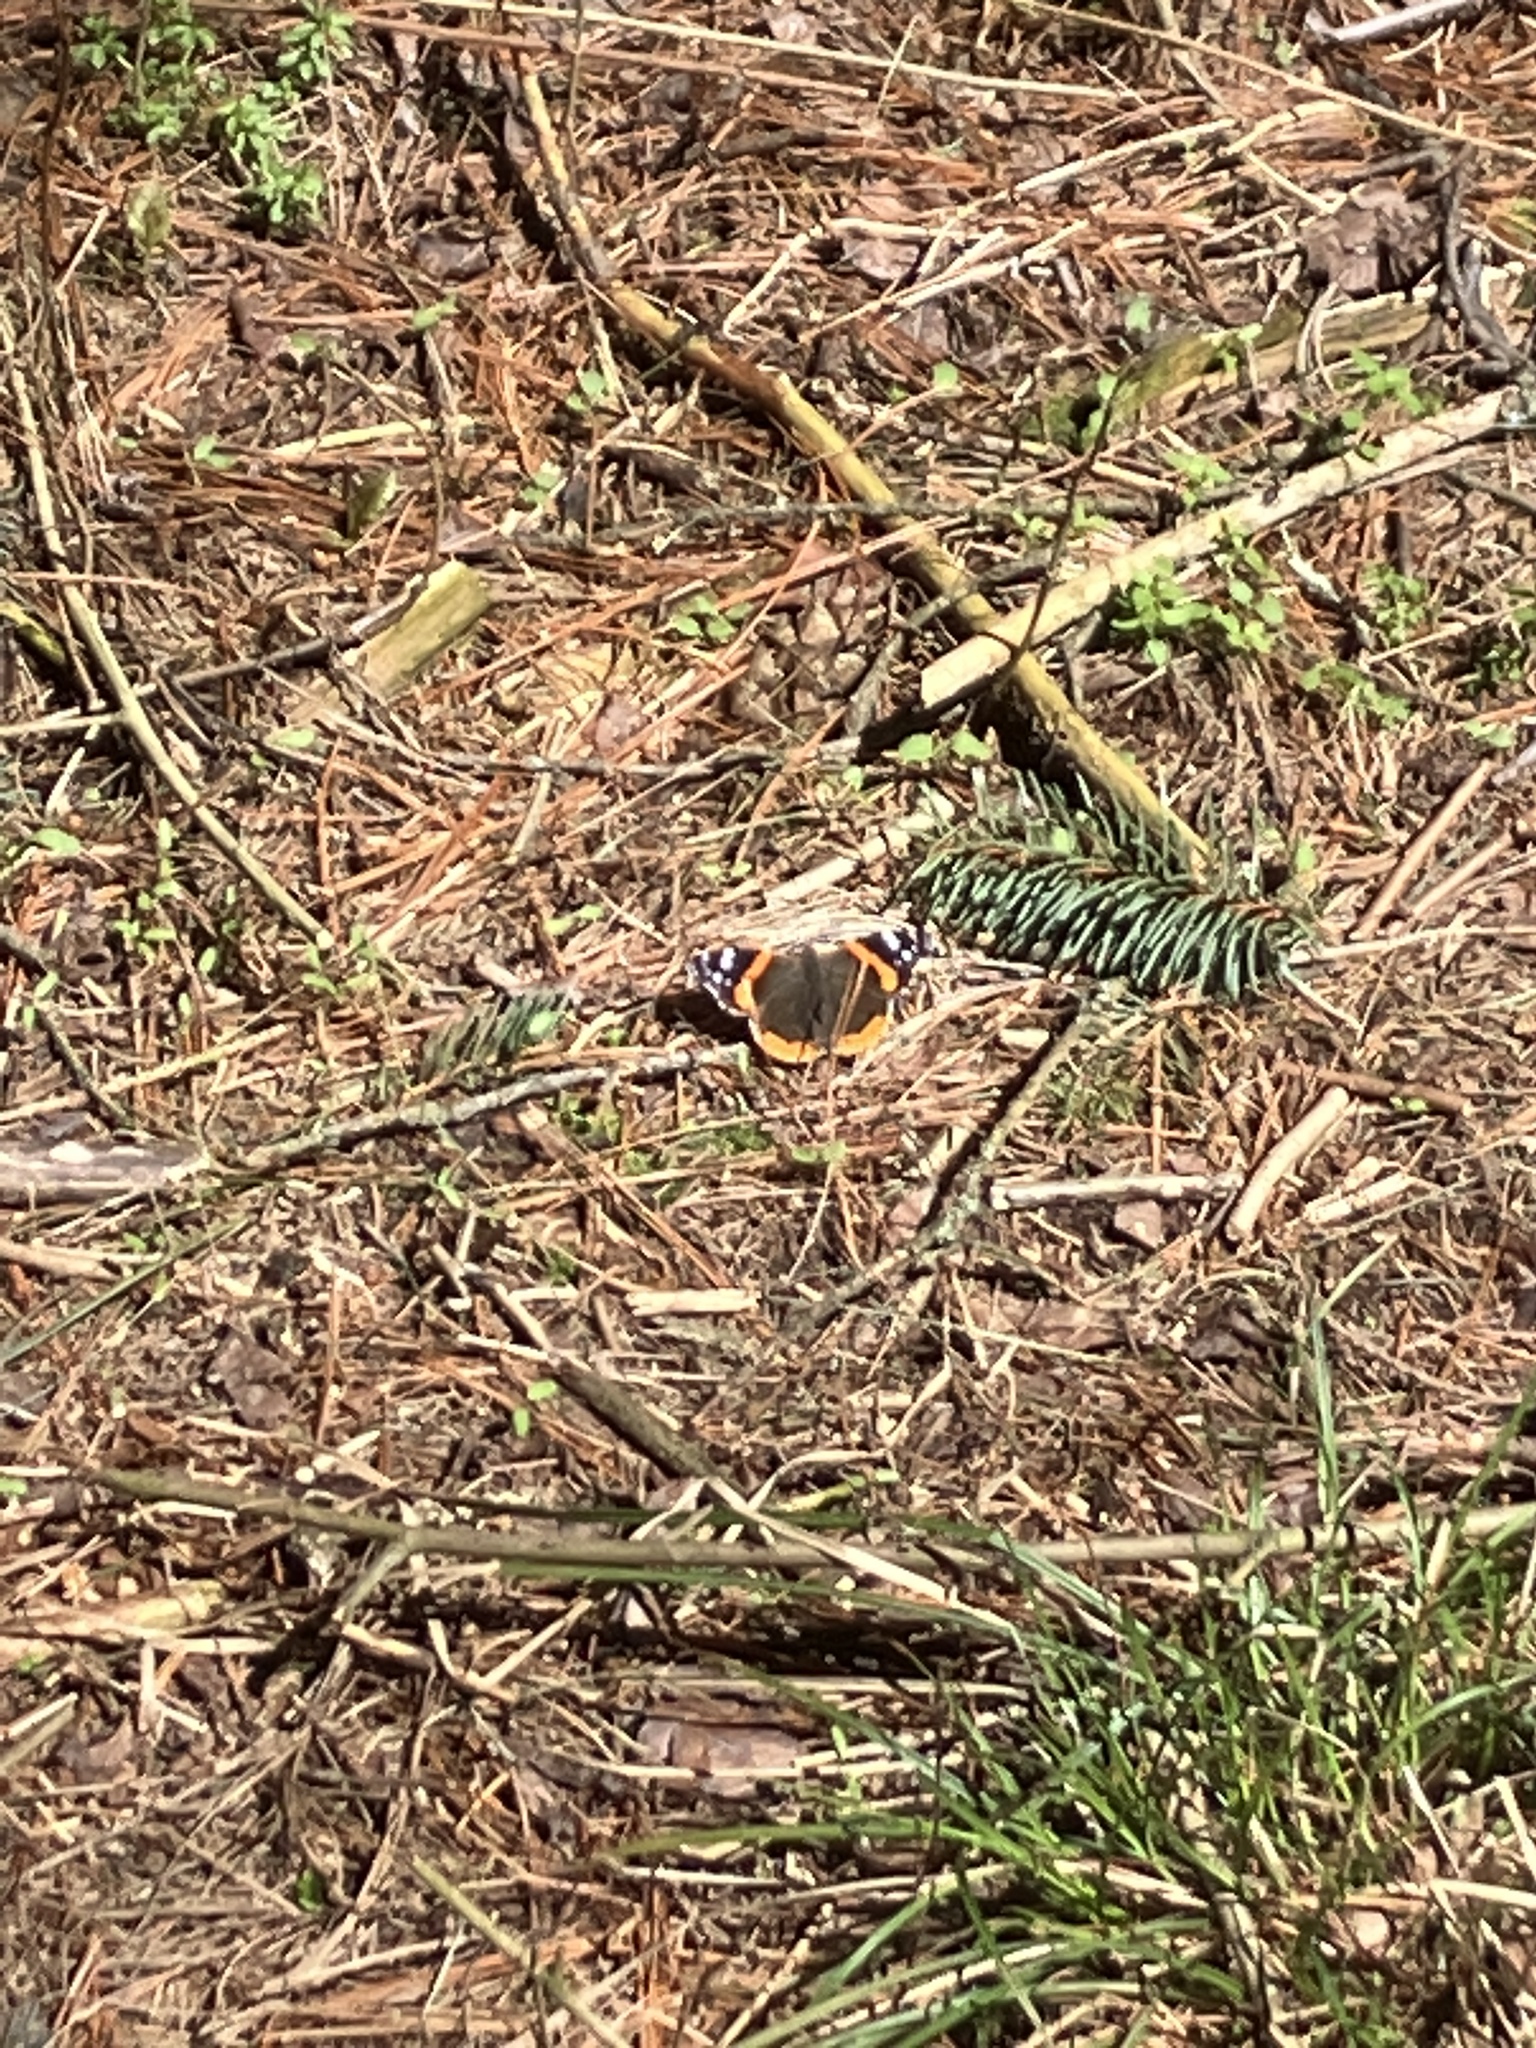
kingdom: Animalia
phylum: Arthropoda
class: Insecta
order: Lepidoptera
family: Nymphalidae
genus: Vanessa
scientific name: Vanessa atalanta
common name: Red admiral
